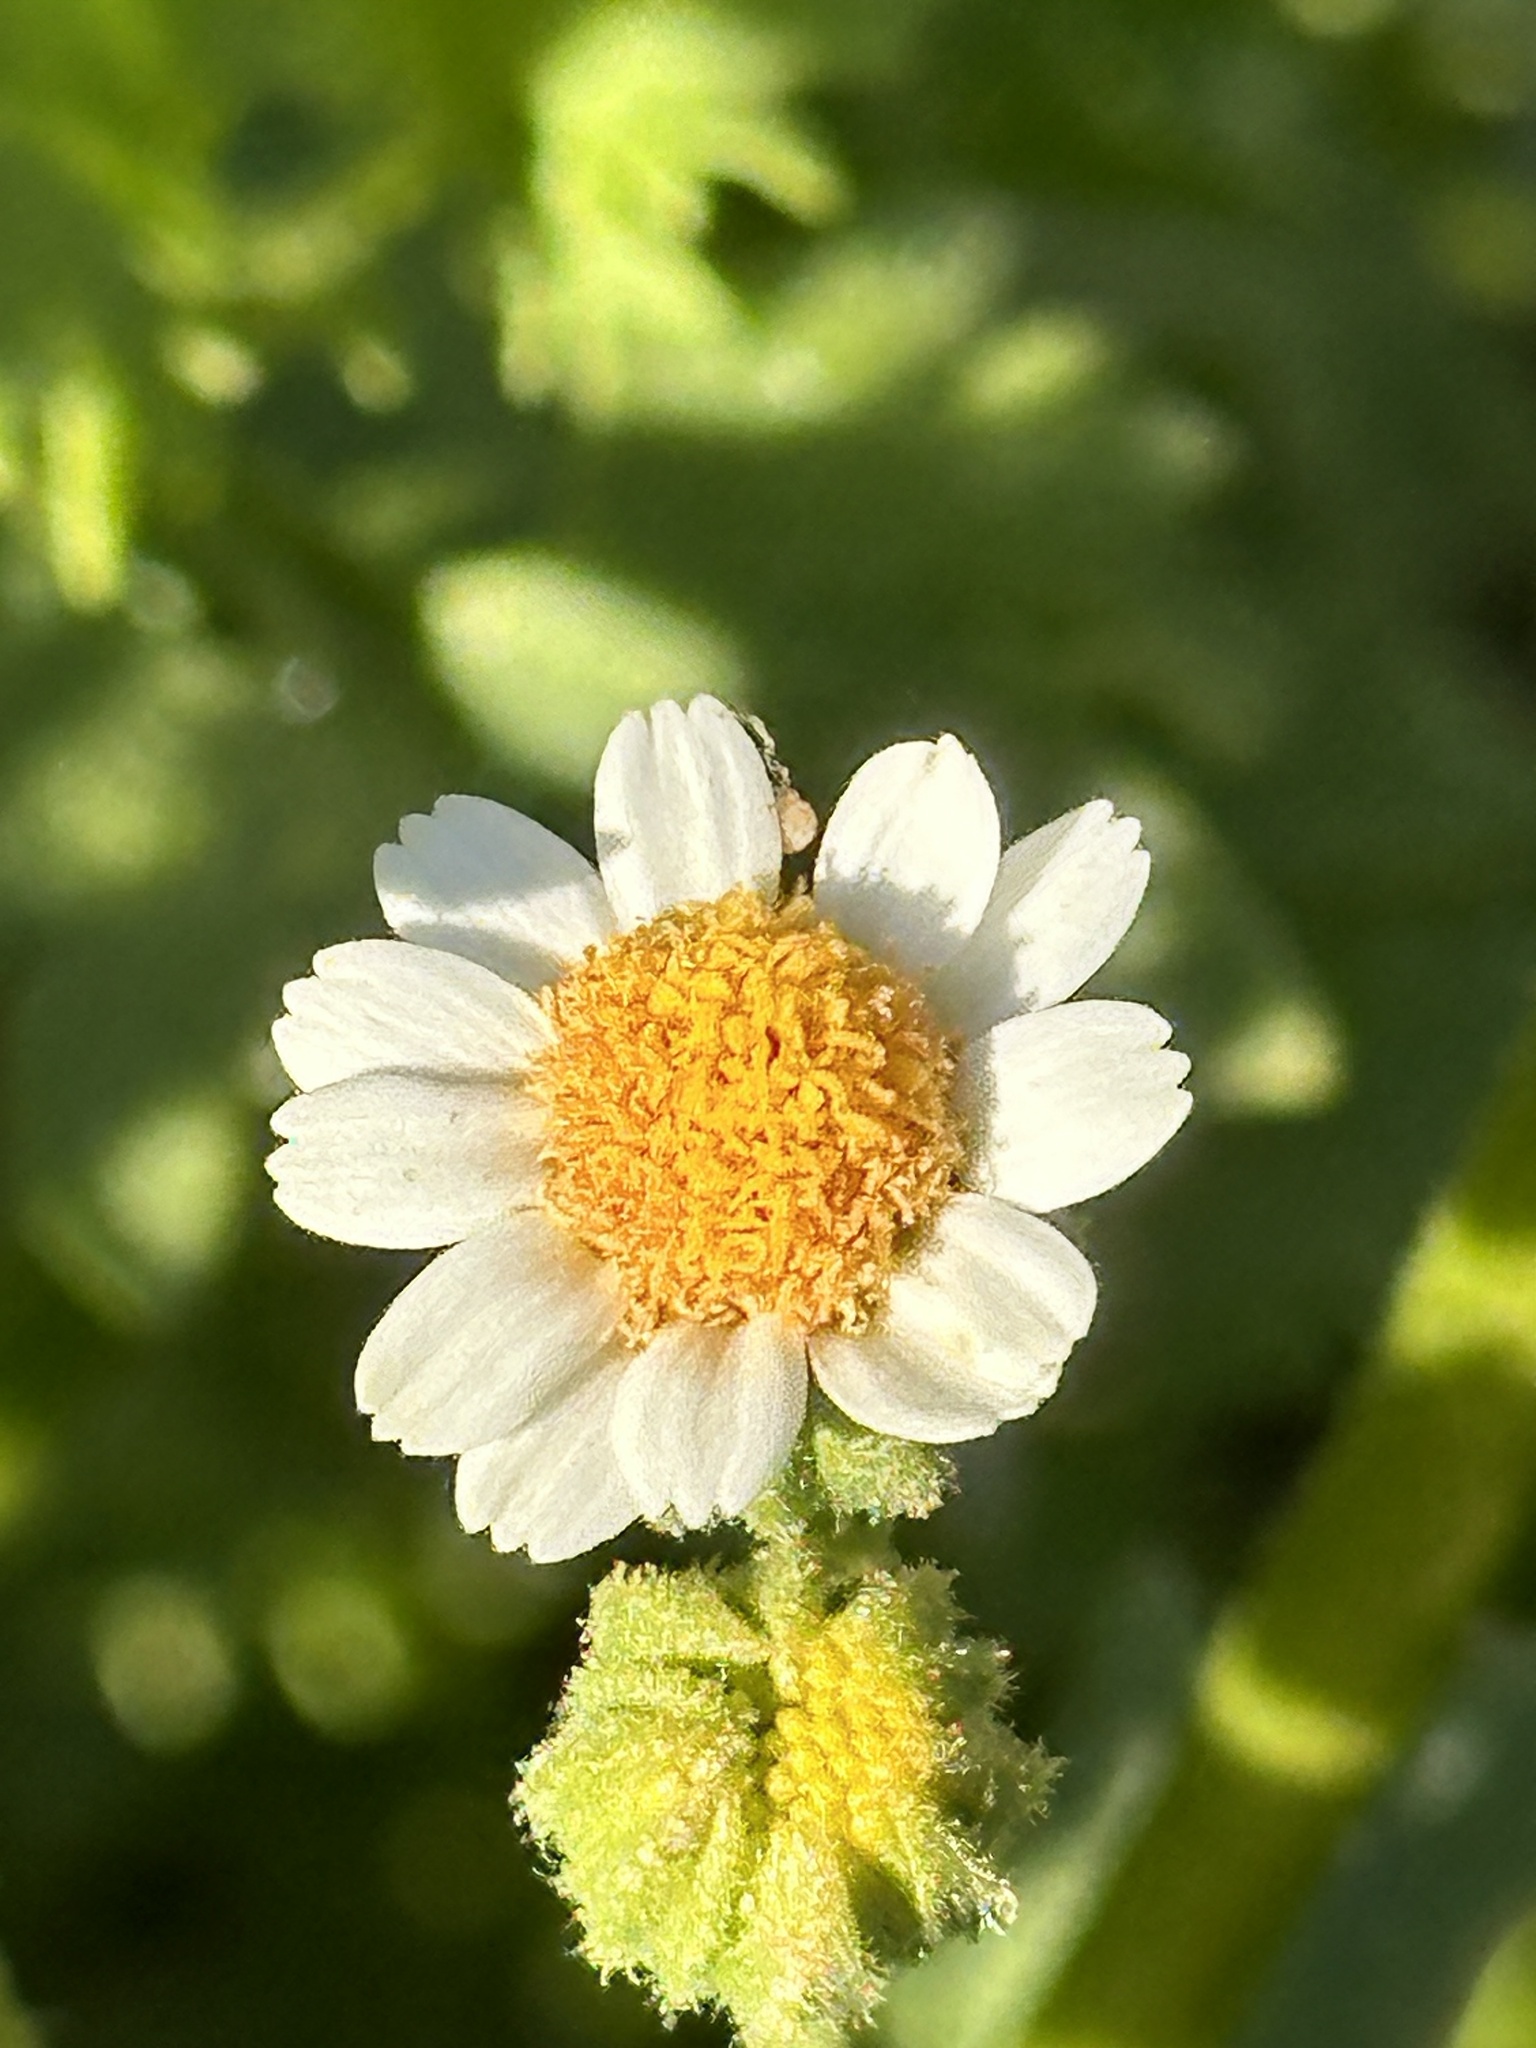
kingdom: Plantae
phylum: Tracheophyta
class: Magnoliopsida
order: Asterales
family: Asteraceae
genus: Laphamia
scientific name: Laphamia emoryi
